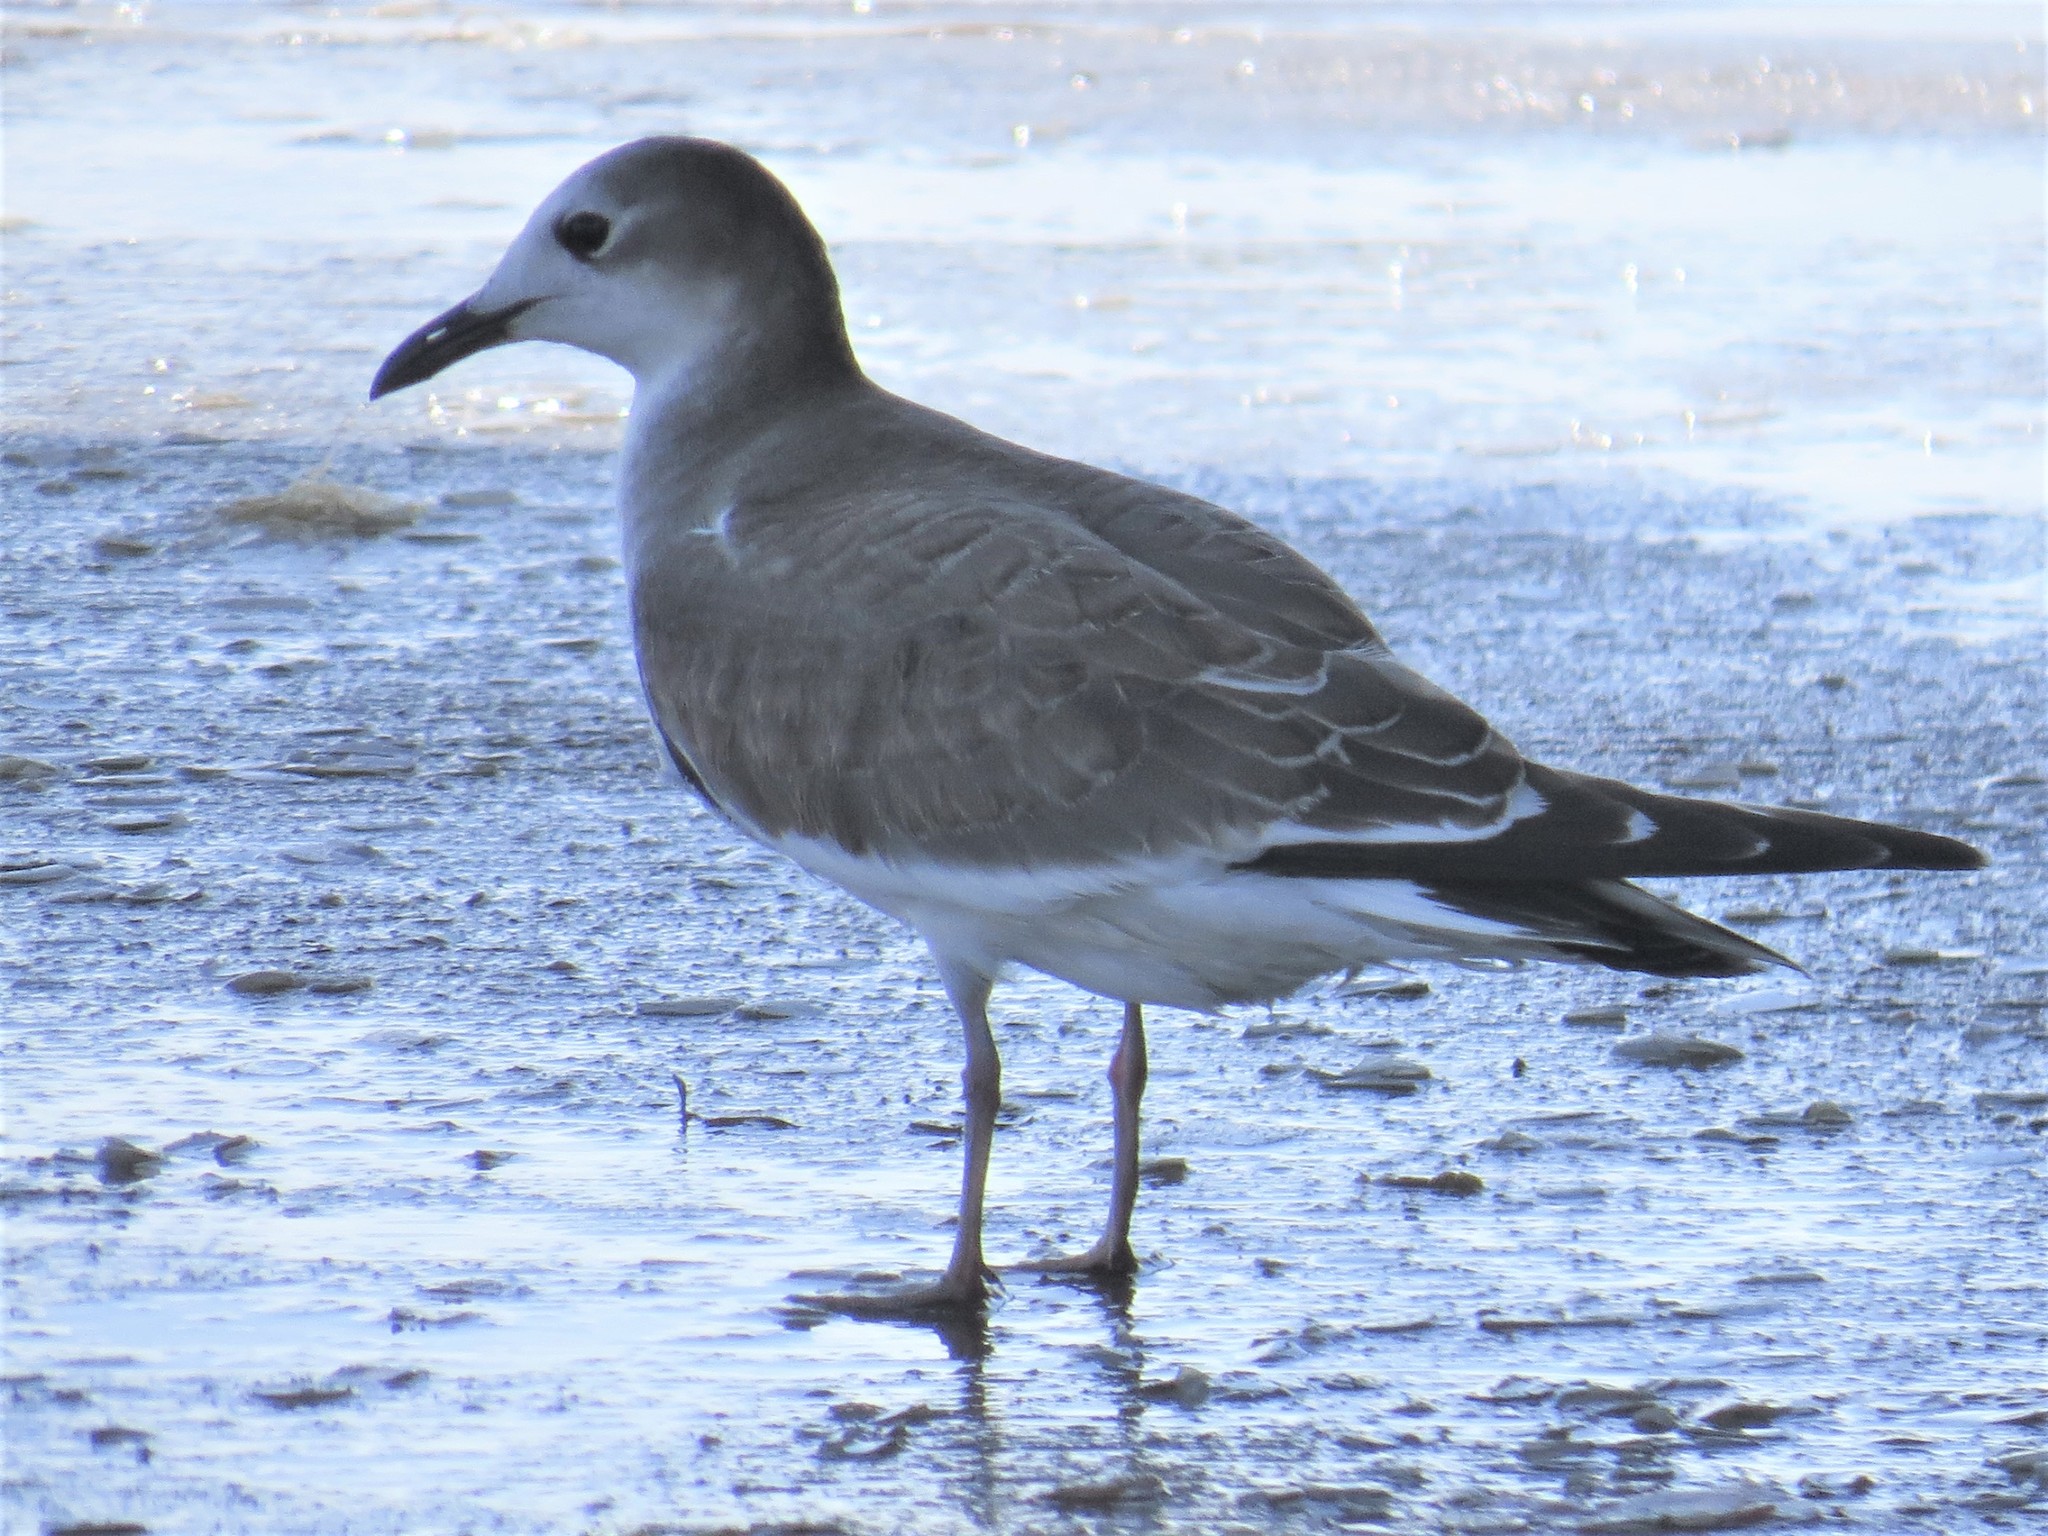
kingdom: Animalia
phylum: Chordata
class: Aves
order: Charadriiformes
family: Laridae
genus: Xema
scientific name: Xema sabini
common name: Sabine's gull
